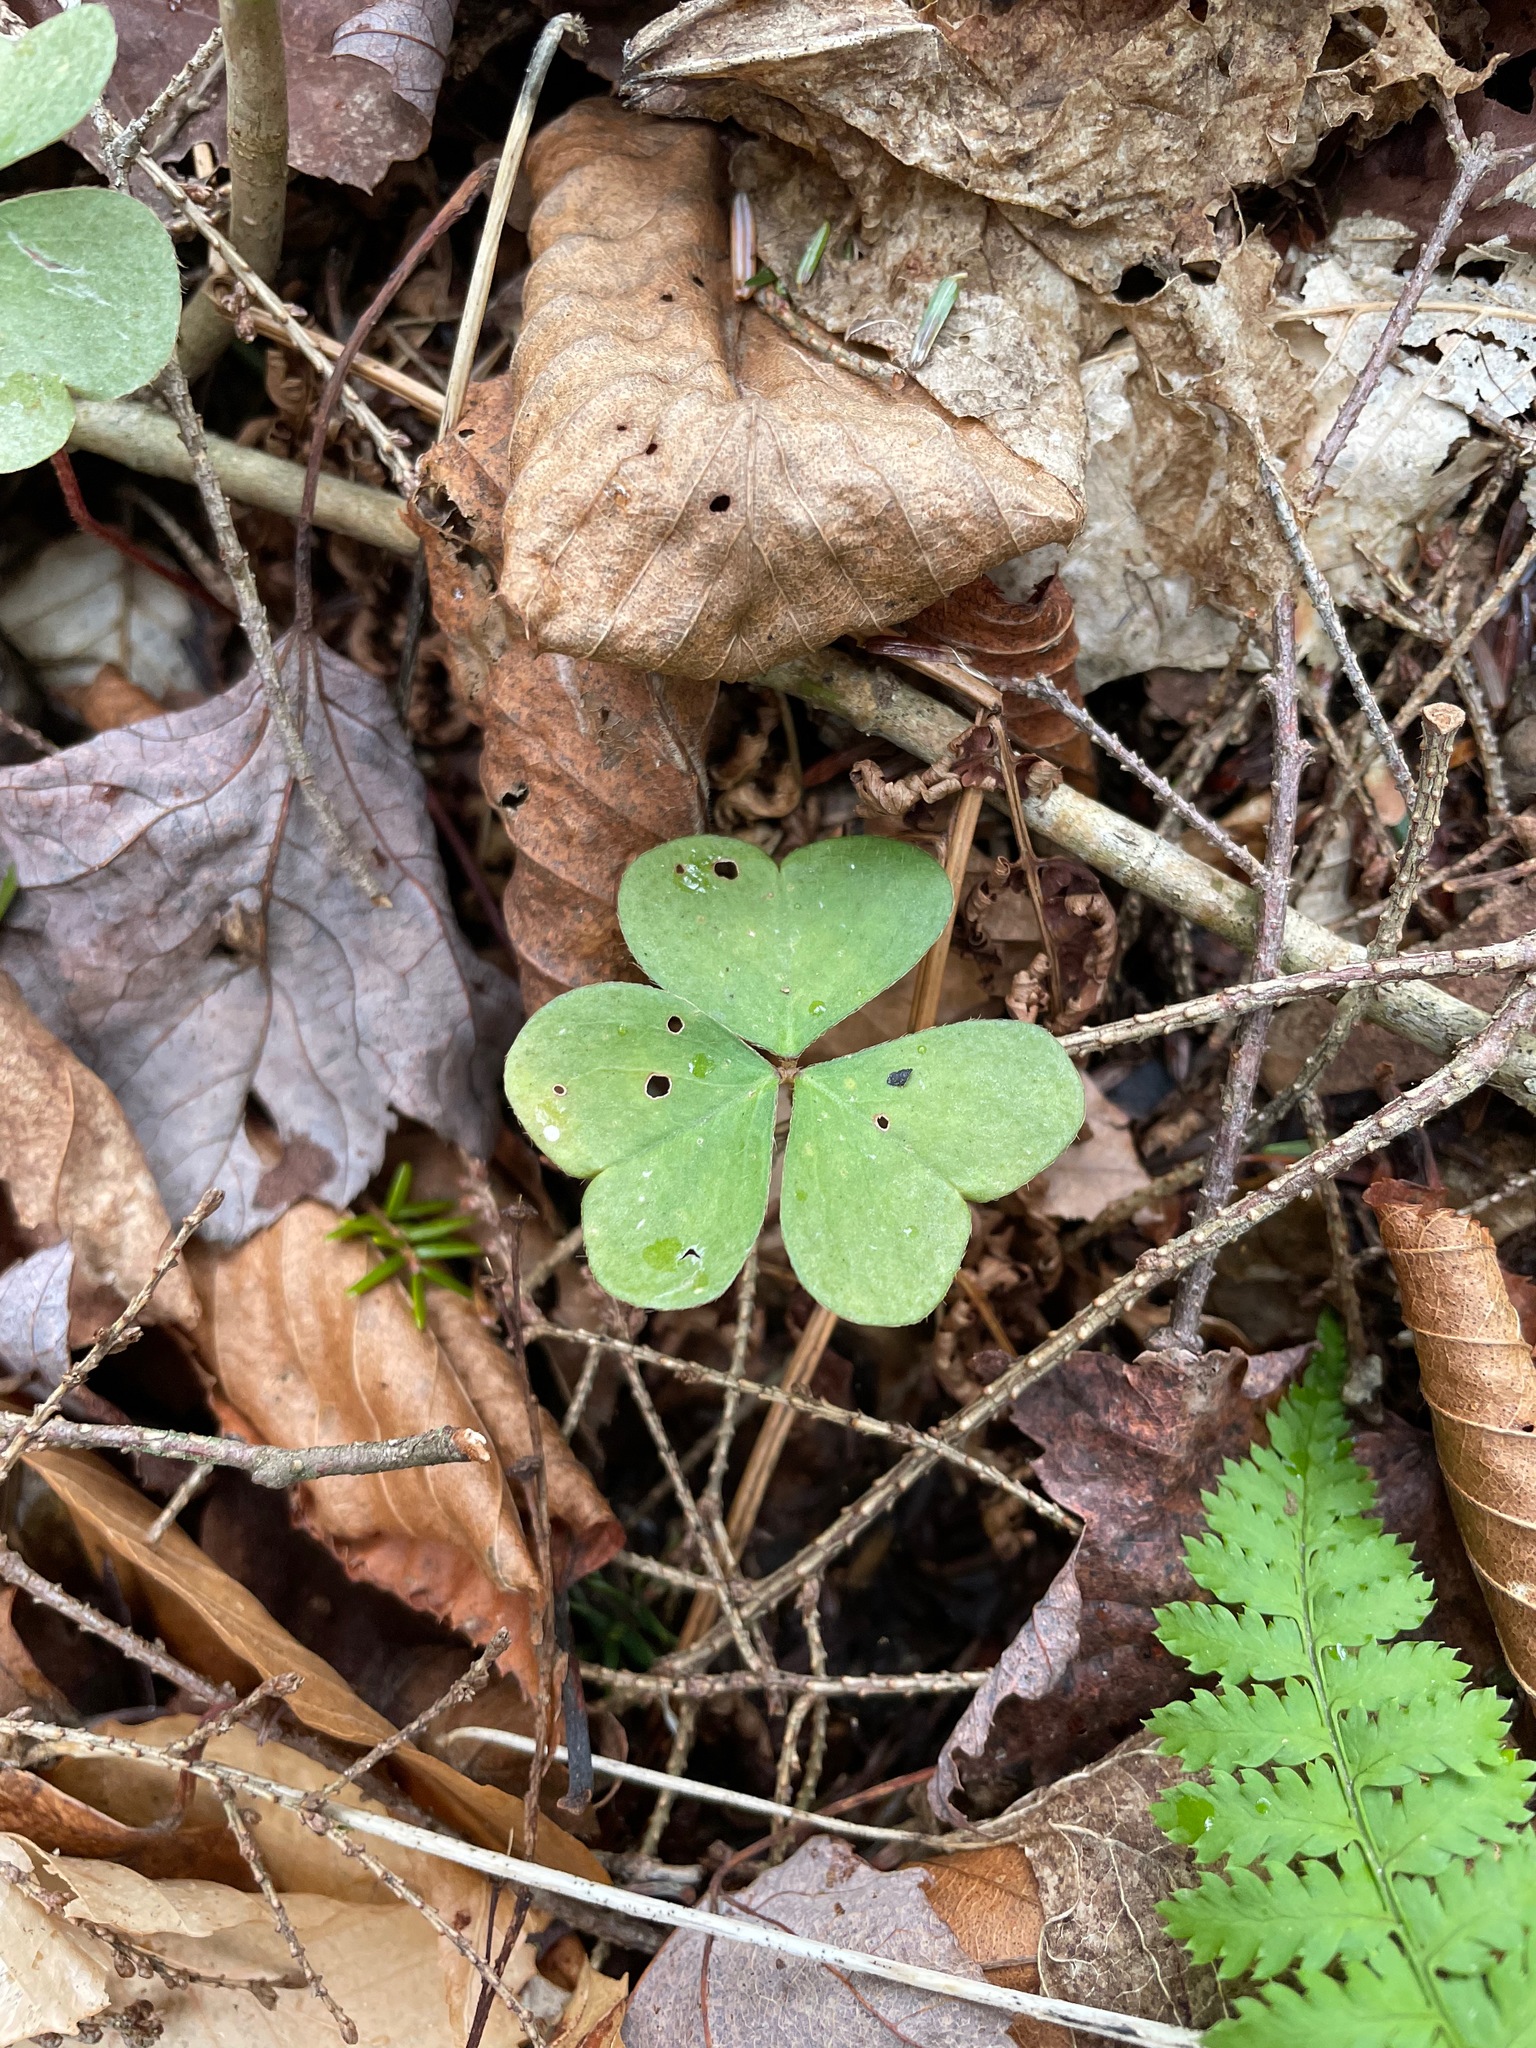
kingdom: Plantae
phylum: Tracheophyta
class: Magnoliopsida
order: Oxalidales
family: Oxalidaceae
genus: Oxalis
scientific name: Oxalis montana
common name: American wood-sorrel
